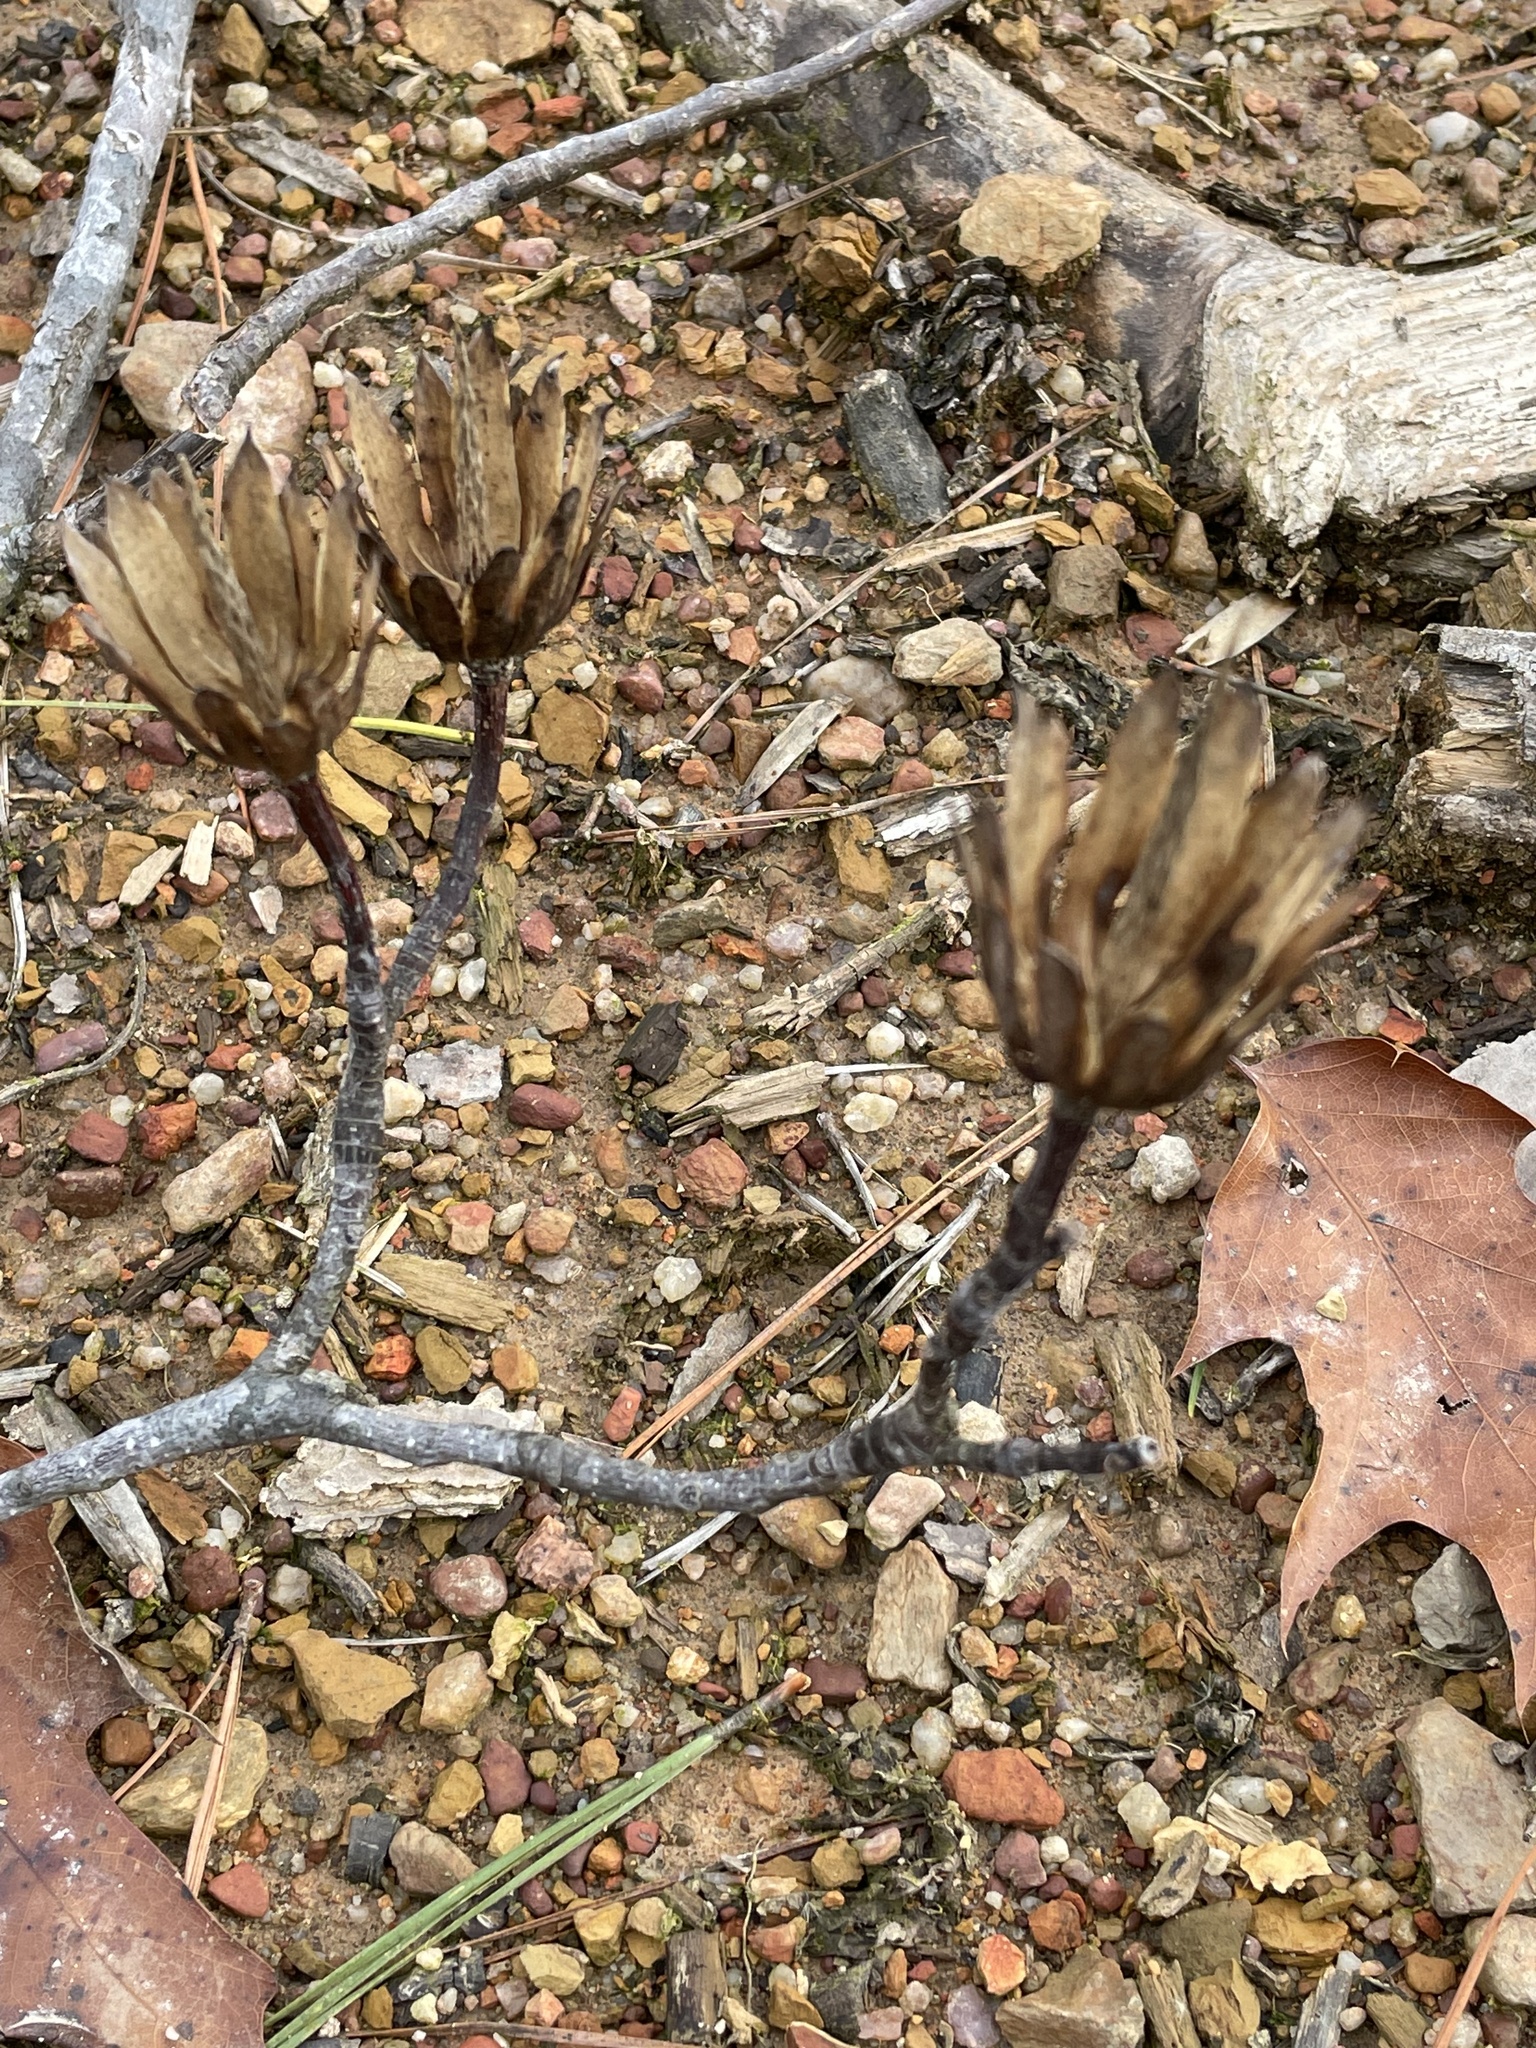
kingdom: Plantae
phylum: Tracheophyta
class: Magnoliopsida
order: Magnoliales
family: Magnoliaceae
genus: Liriodendron
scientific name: Liriodendron tulipifera
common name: Tulip tree
